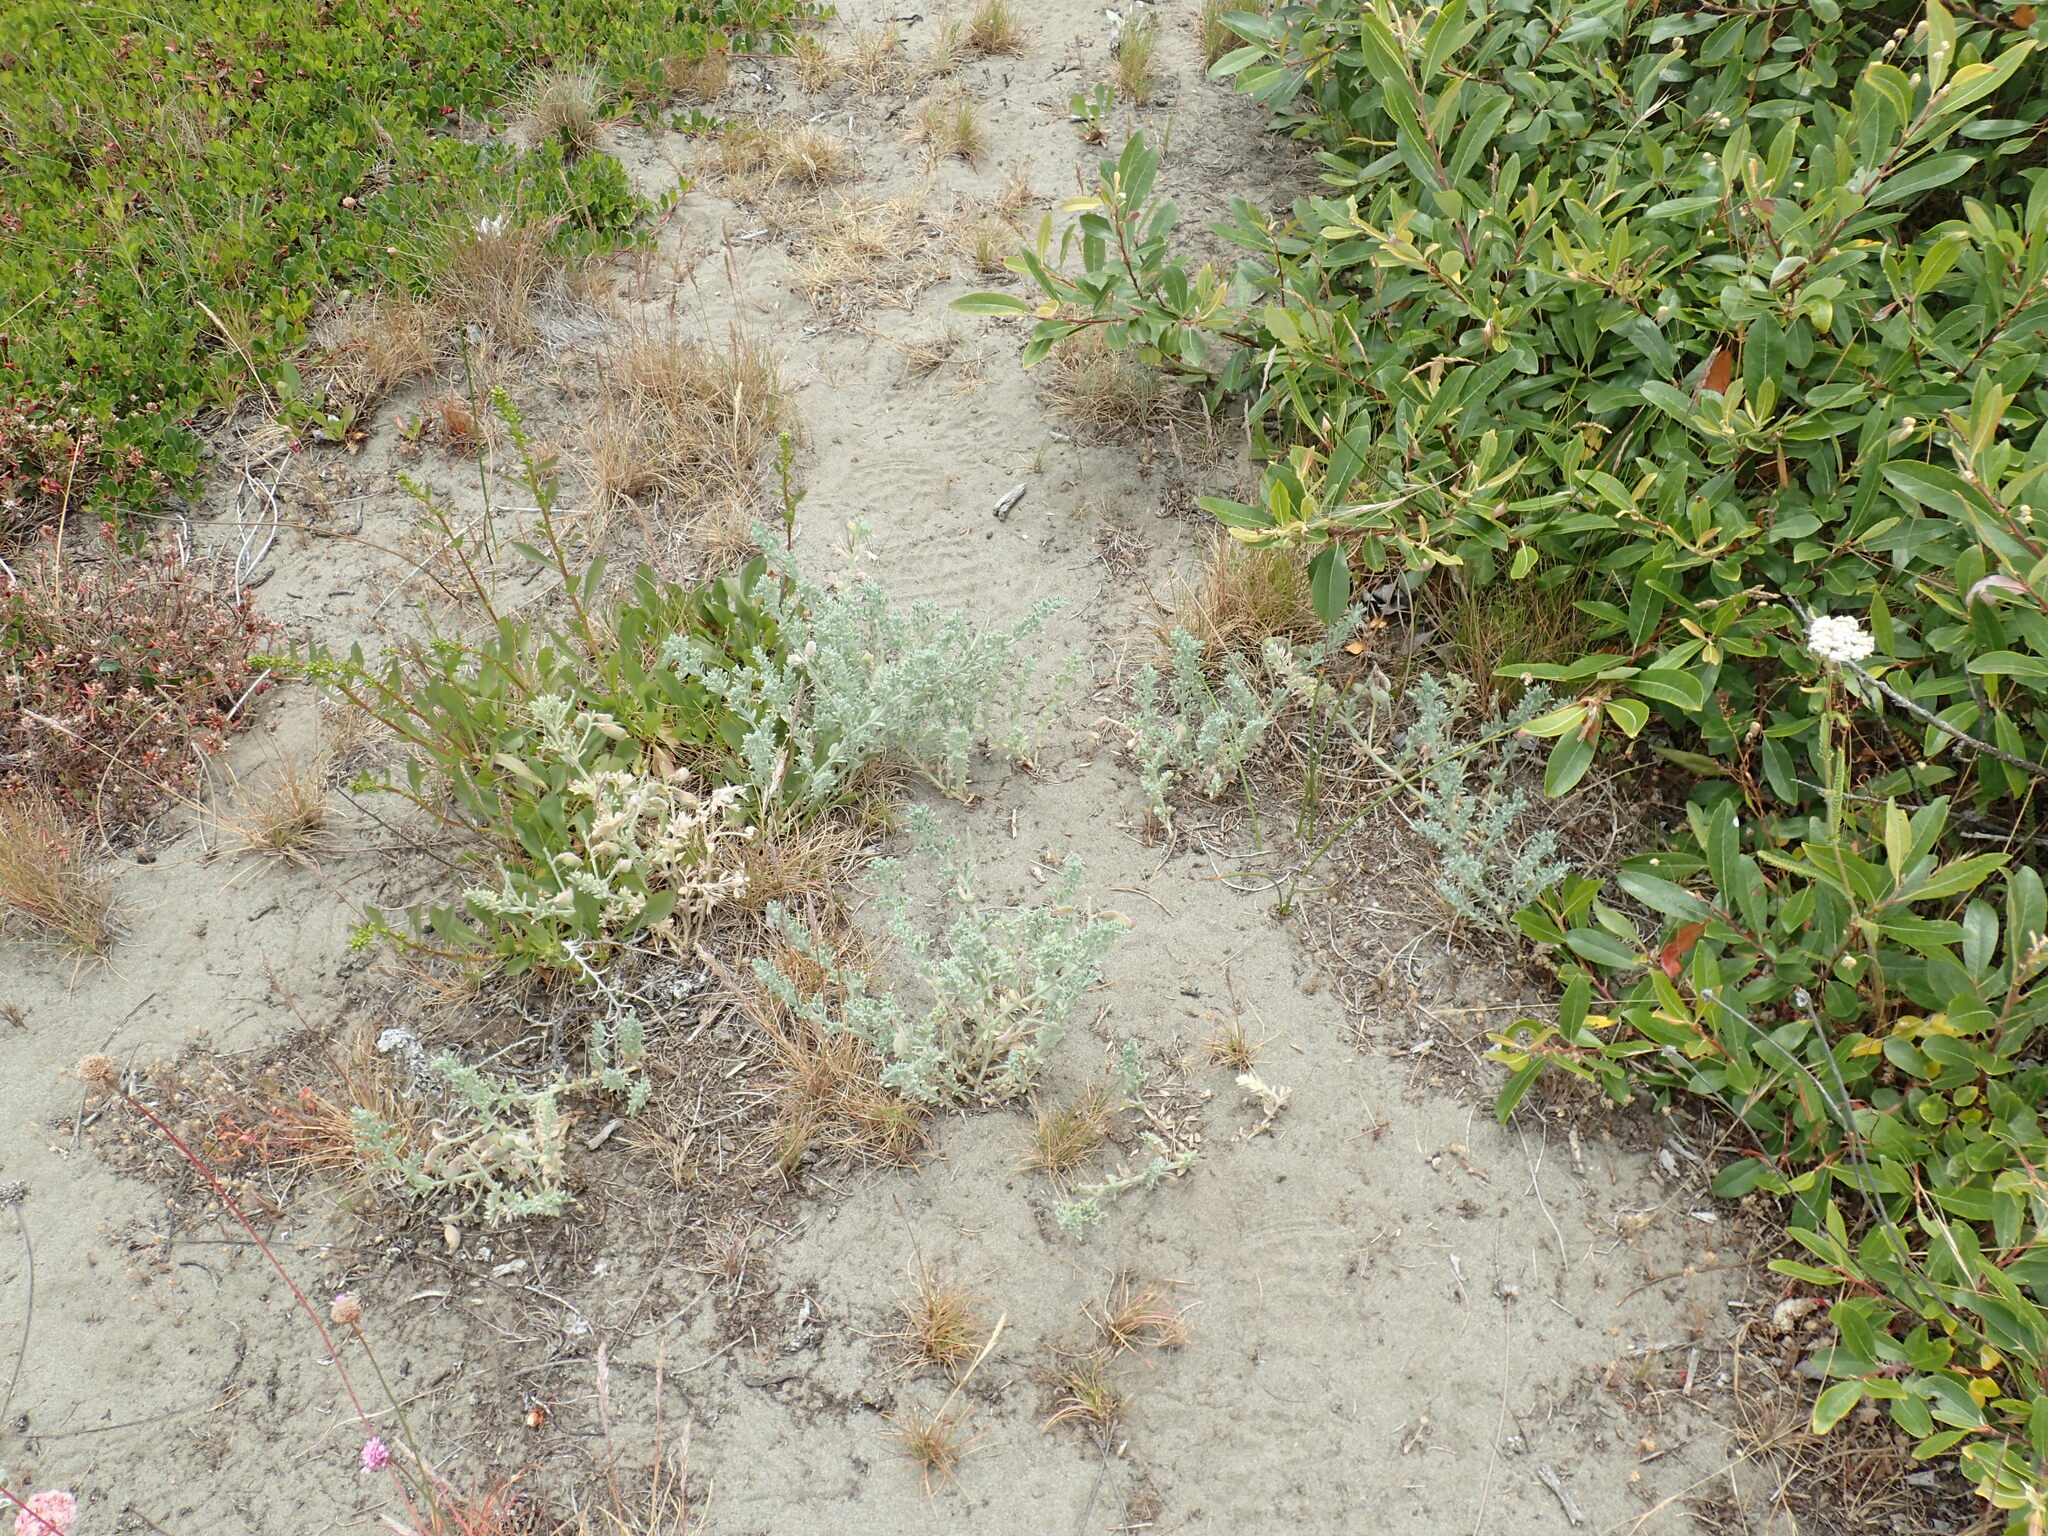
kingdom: Plantae
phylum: Tracheophyta
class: Magnoliopsida
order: Fabales
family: Fabaceae
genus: Lathyrus
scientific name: Lathyrus littoralis
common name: Dune sweet pea
